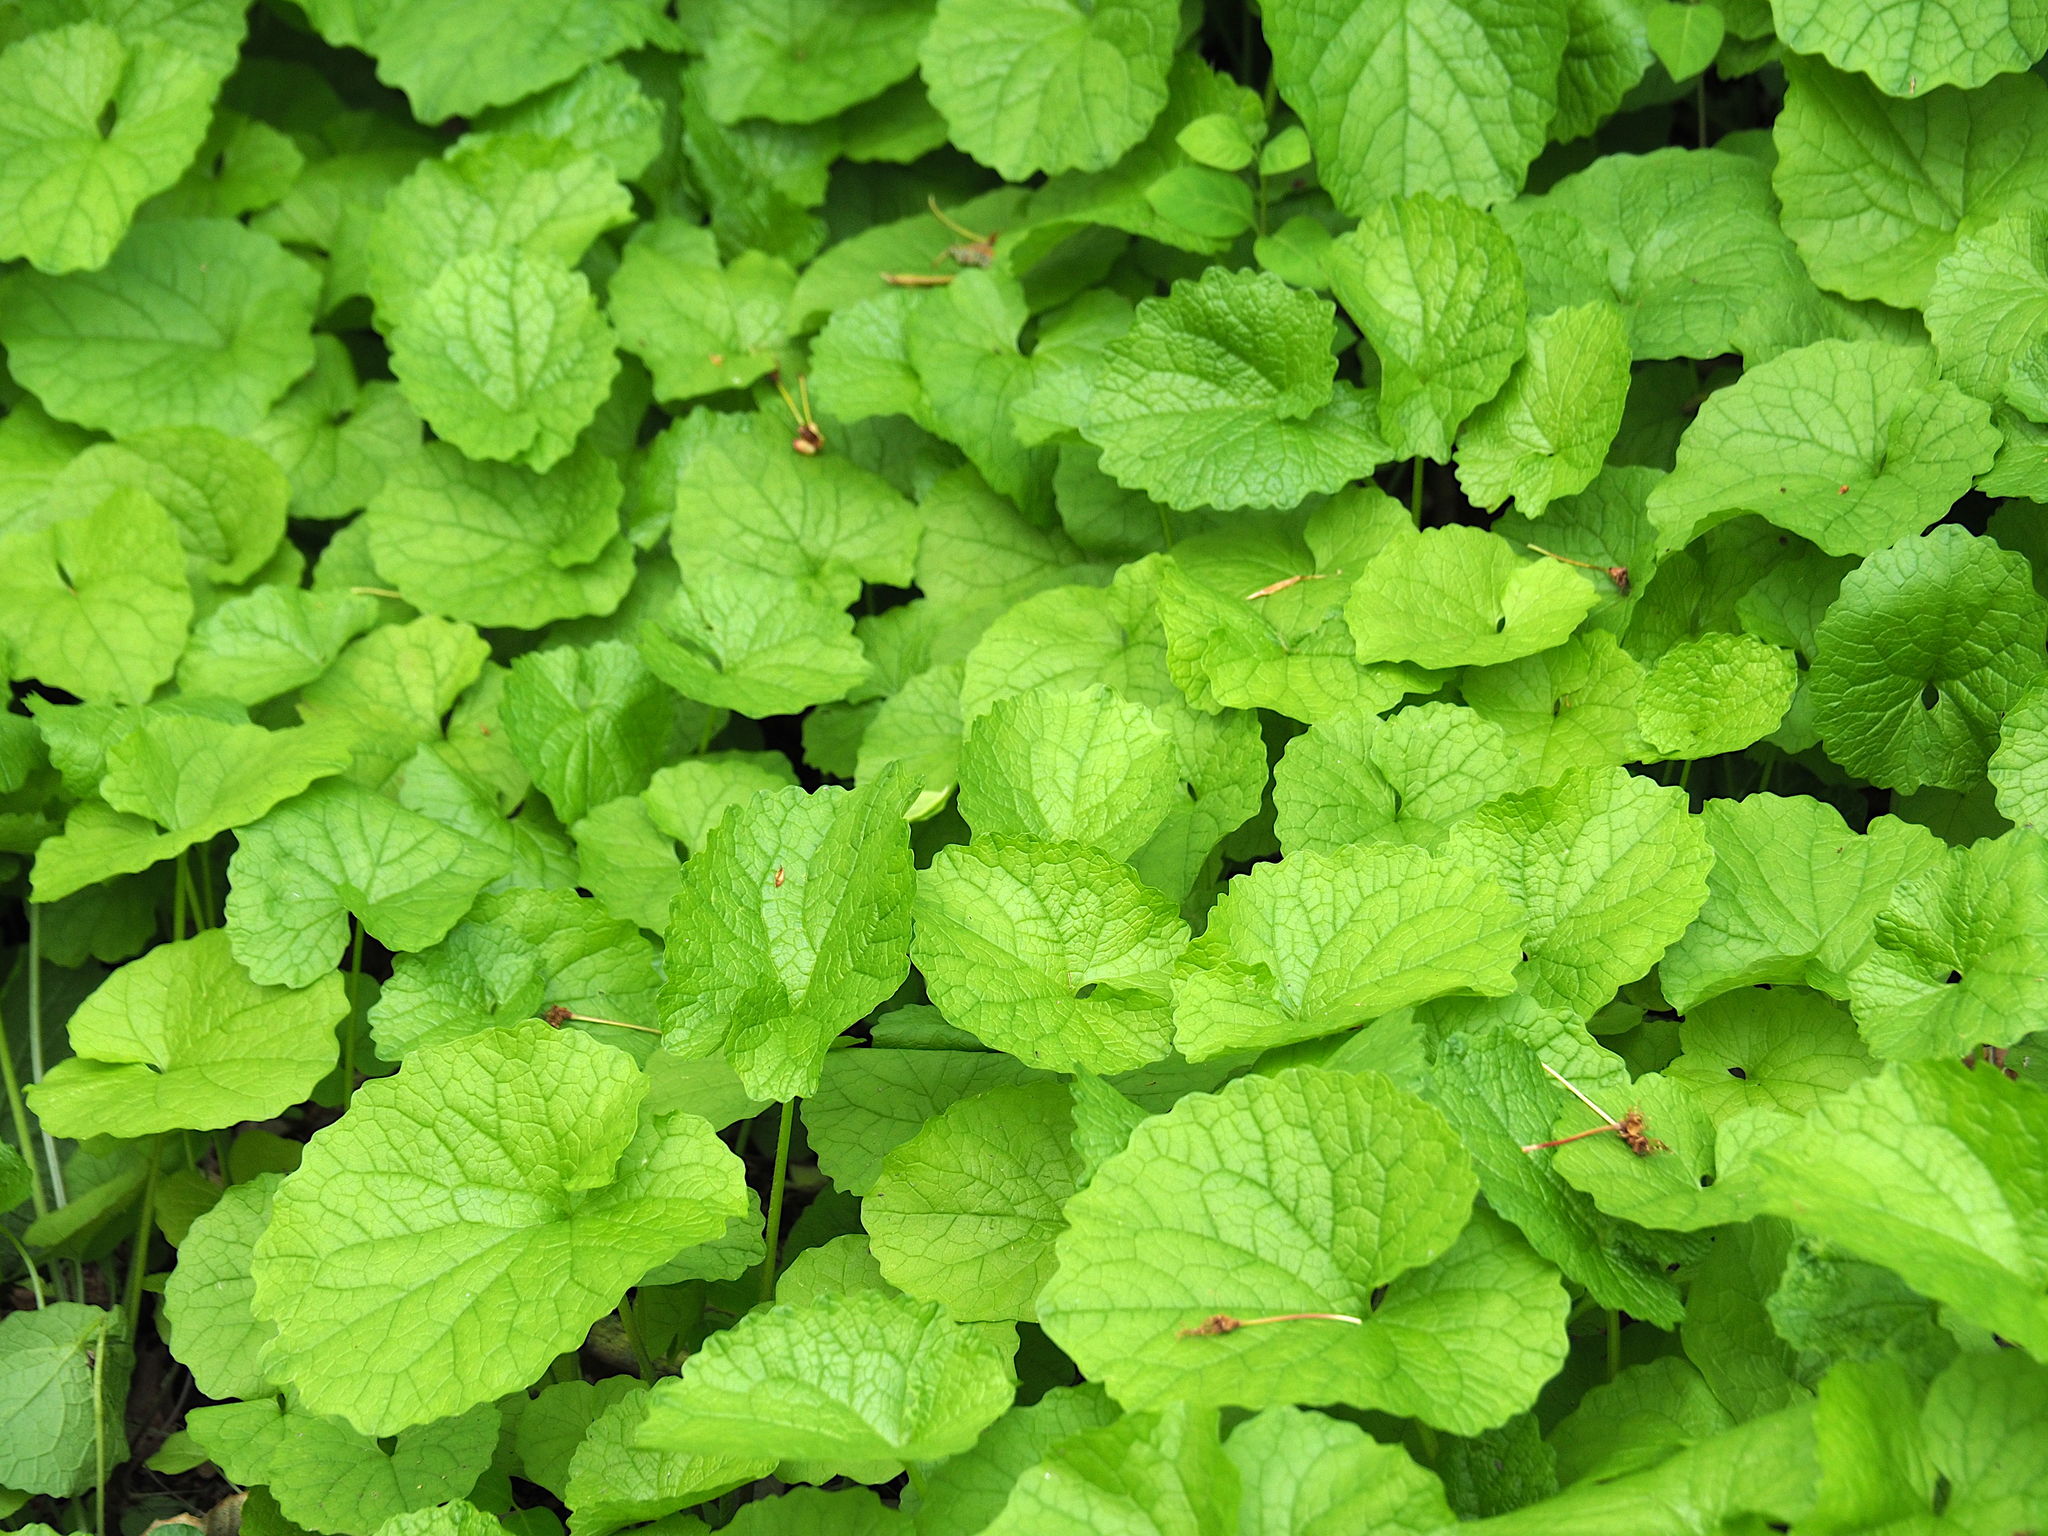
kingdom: Plantae
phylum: Tracheophyta
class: Magnoliopsida
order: Brassicales
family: Brassicaceae
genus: Alliaria
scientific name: Alliaria petiolata
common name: Garlic mustard
